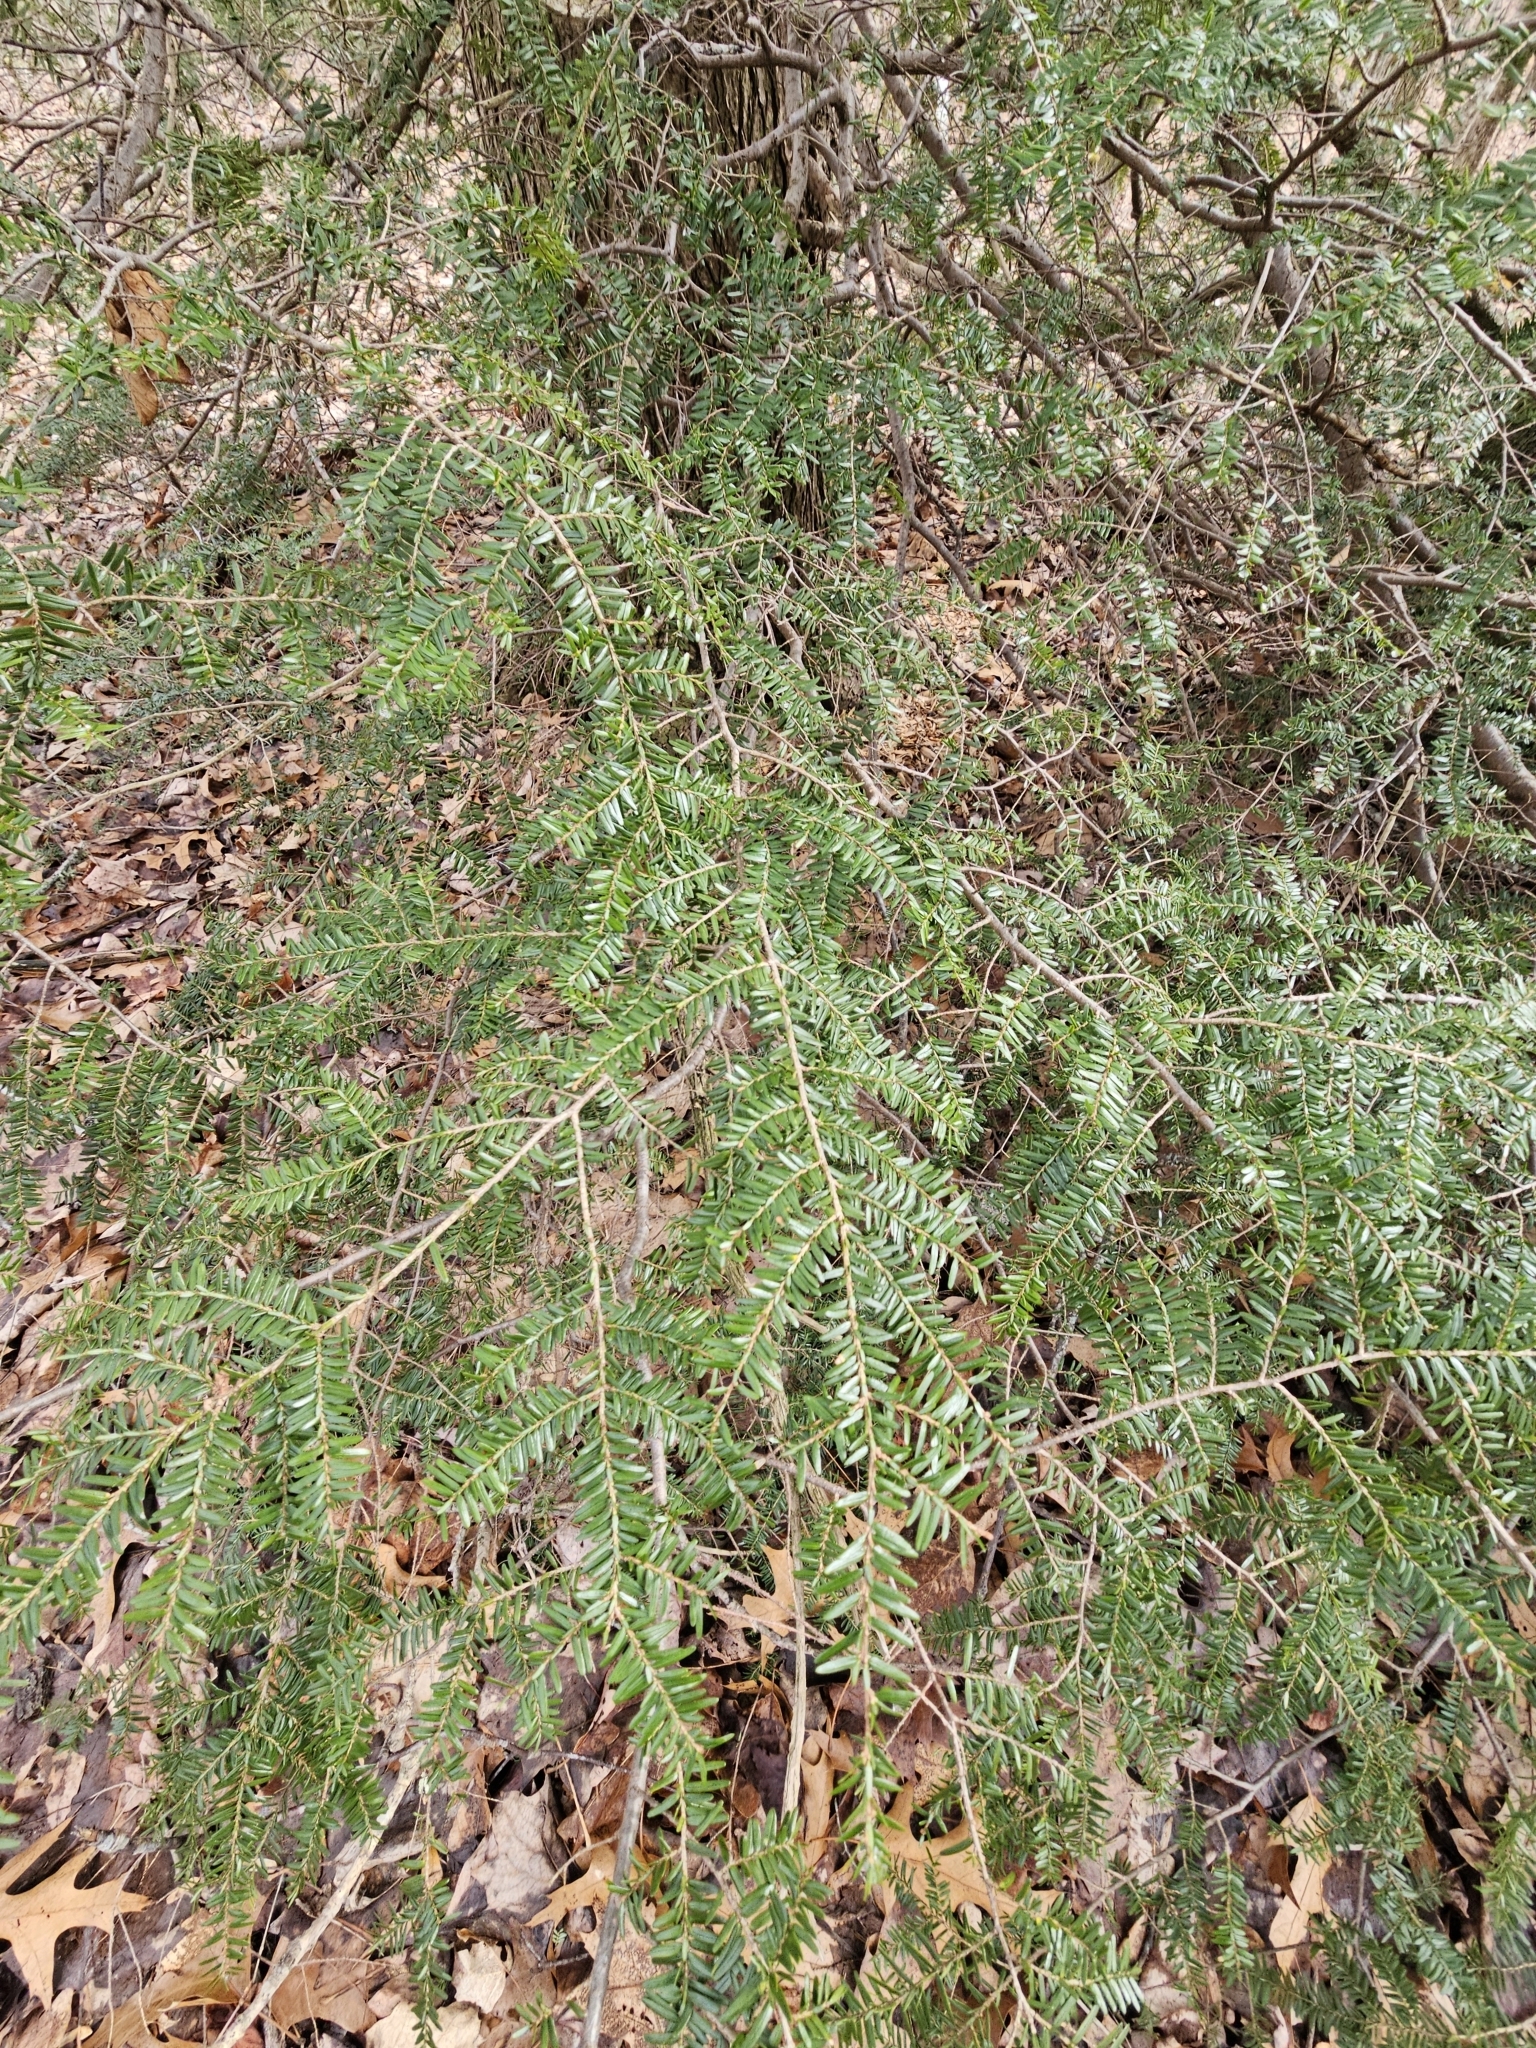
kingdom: Plantae
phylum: Tracheophyta
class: Pinopsida
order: Pinales
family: Pinaceae
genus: Tsuga
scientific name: Tsuga canadensis
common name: Eastern hemlock
